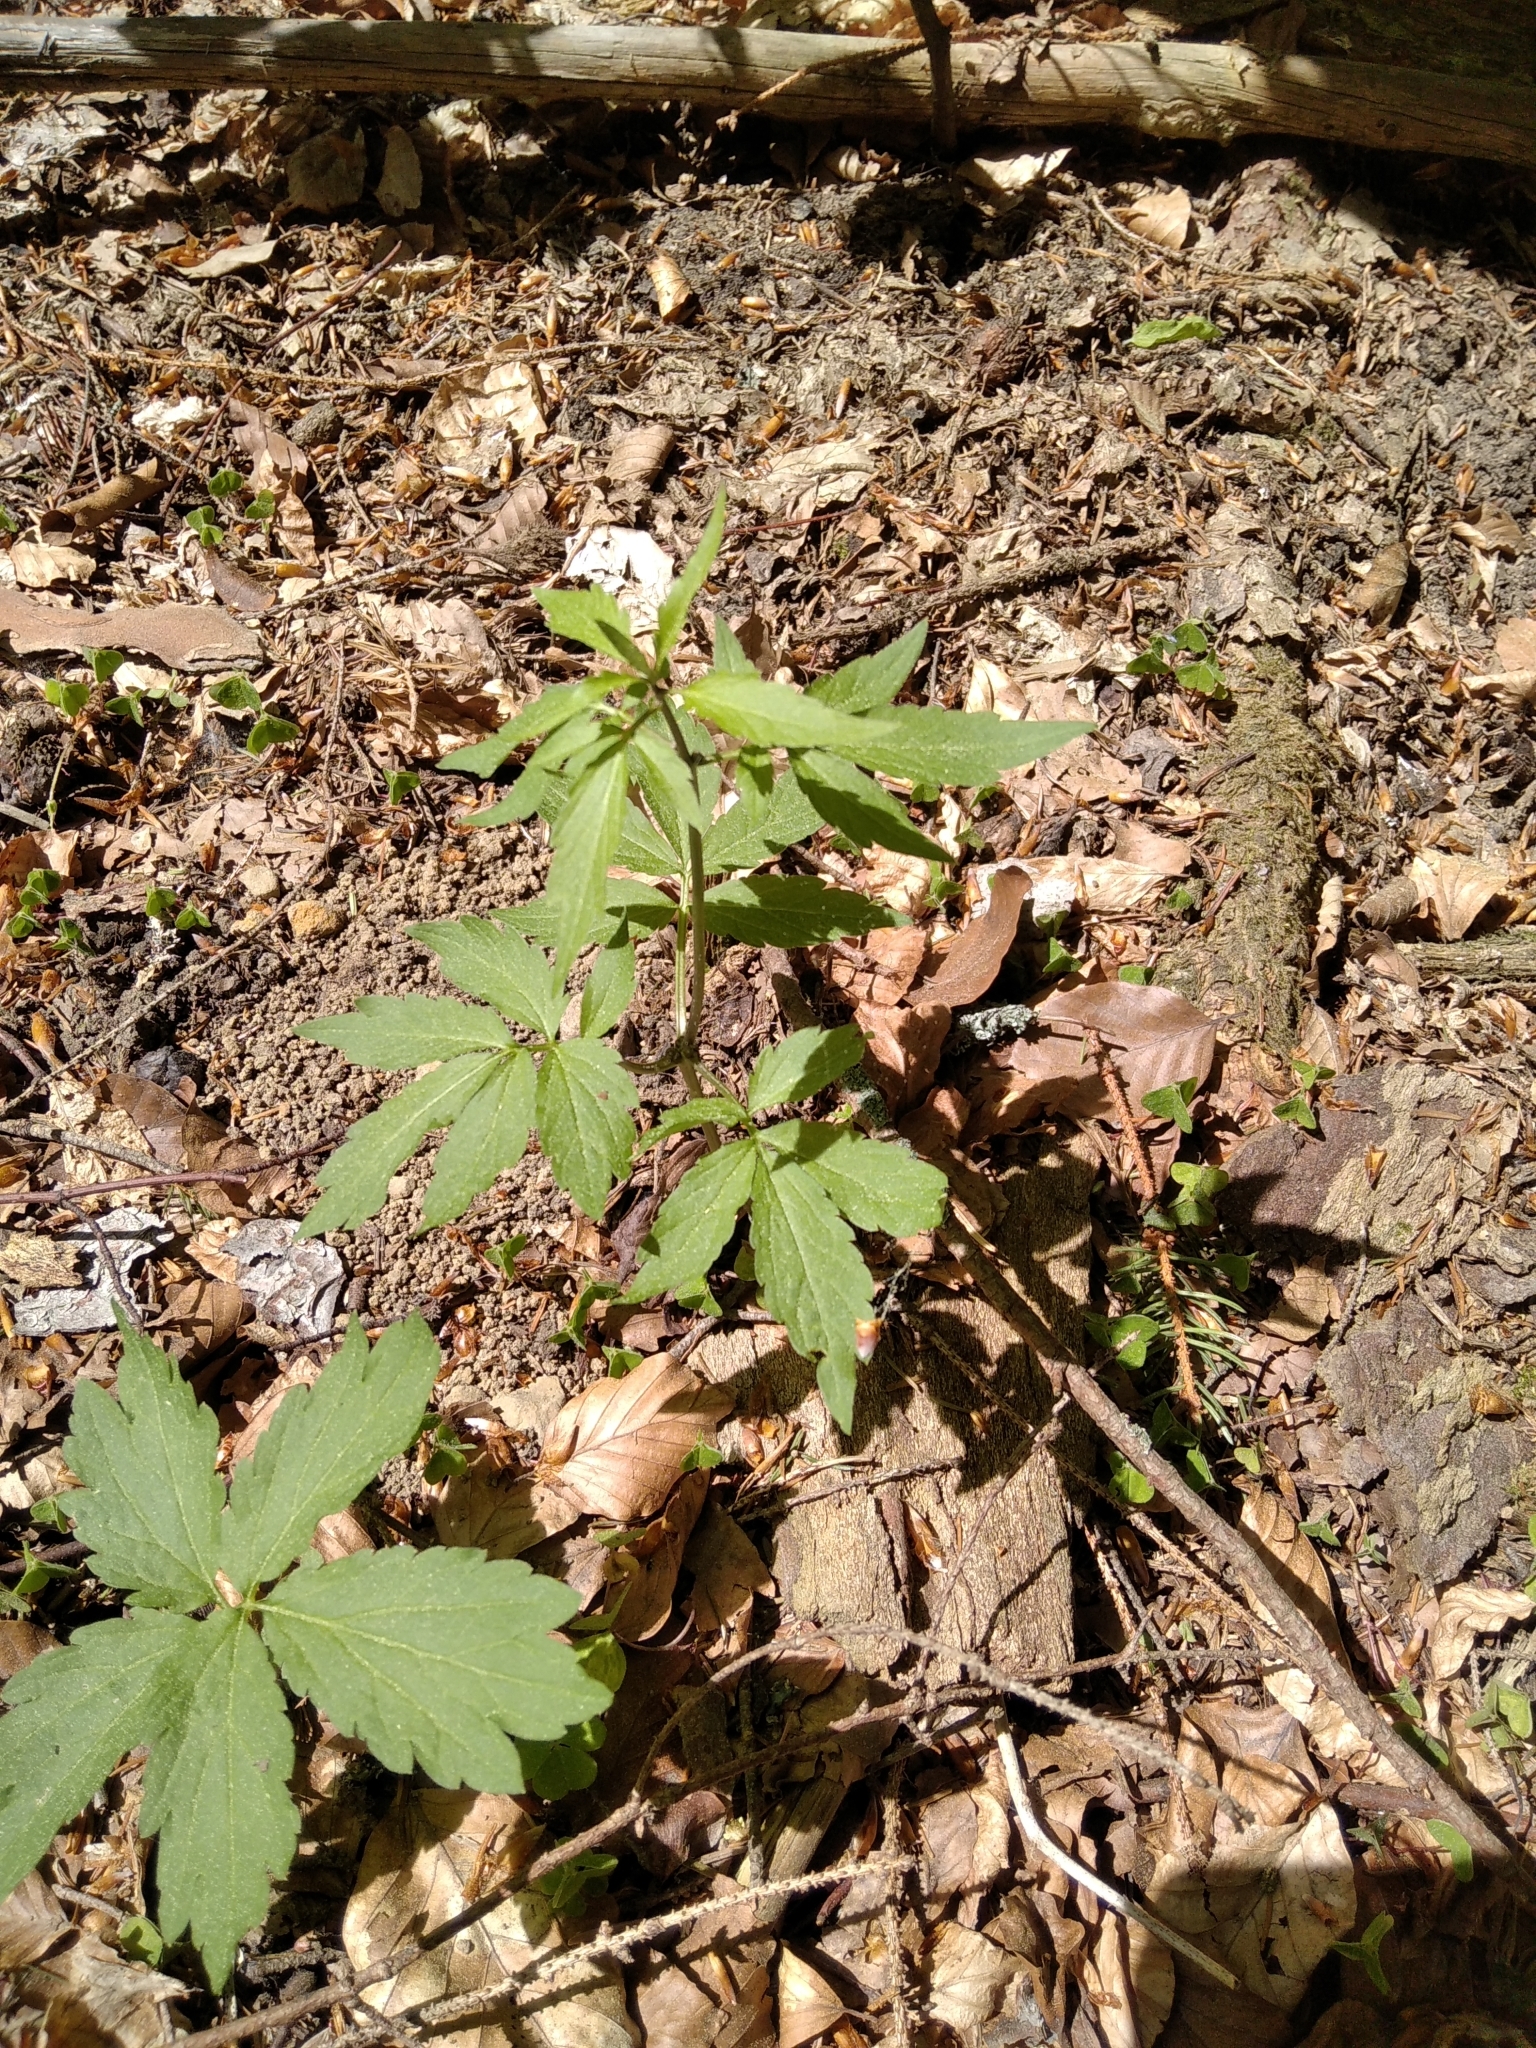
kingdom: Plantae
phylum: Tracheophyta
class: Magnoliopsida
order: Brassicales
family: Brassicaceae
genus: Cardamine
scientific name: Cardamine bulbifera
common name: Coralroot bittercress
